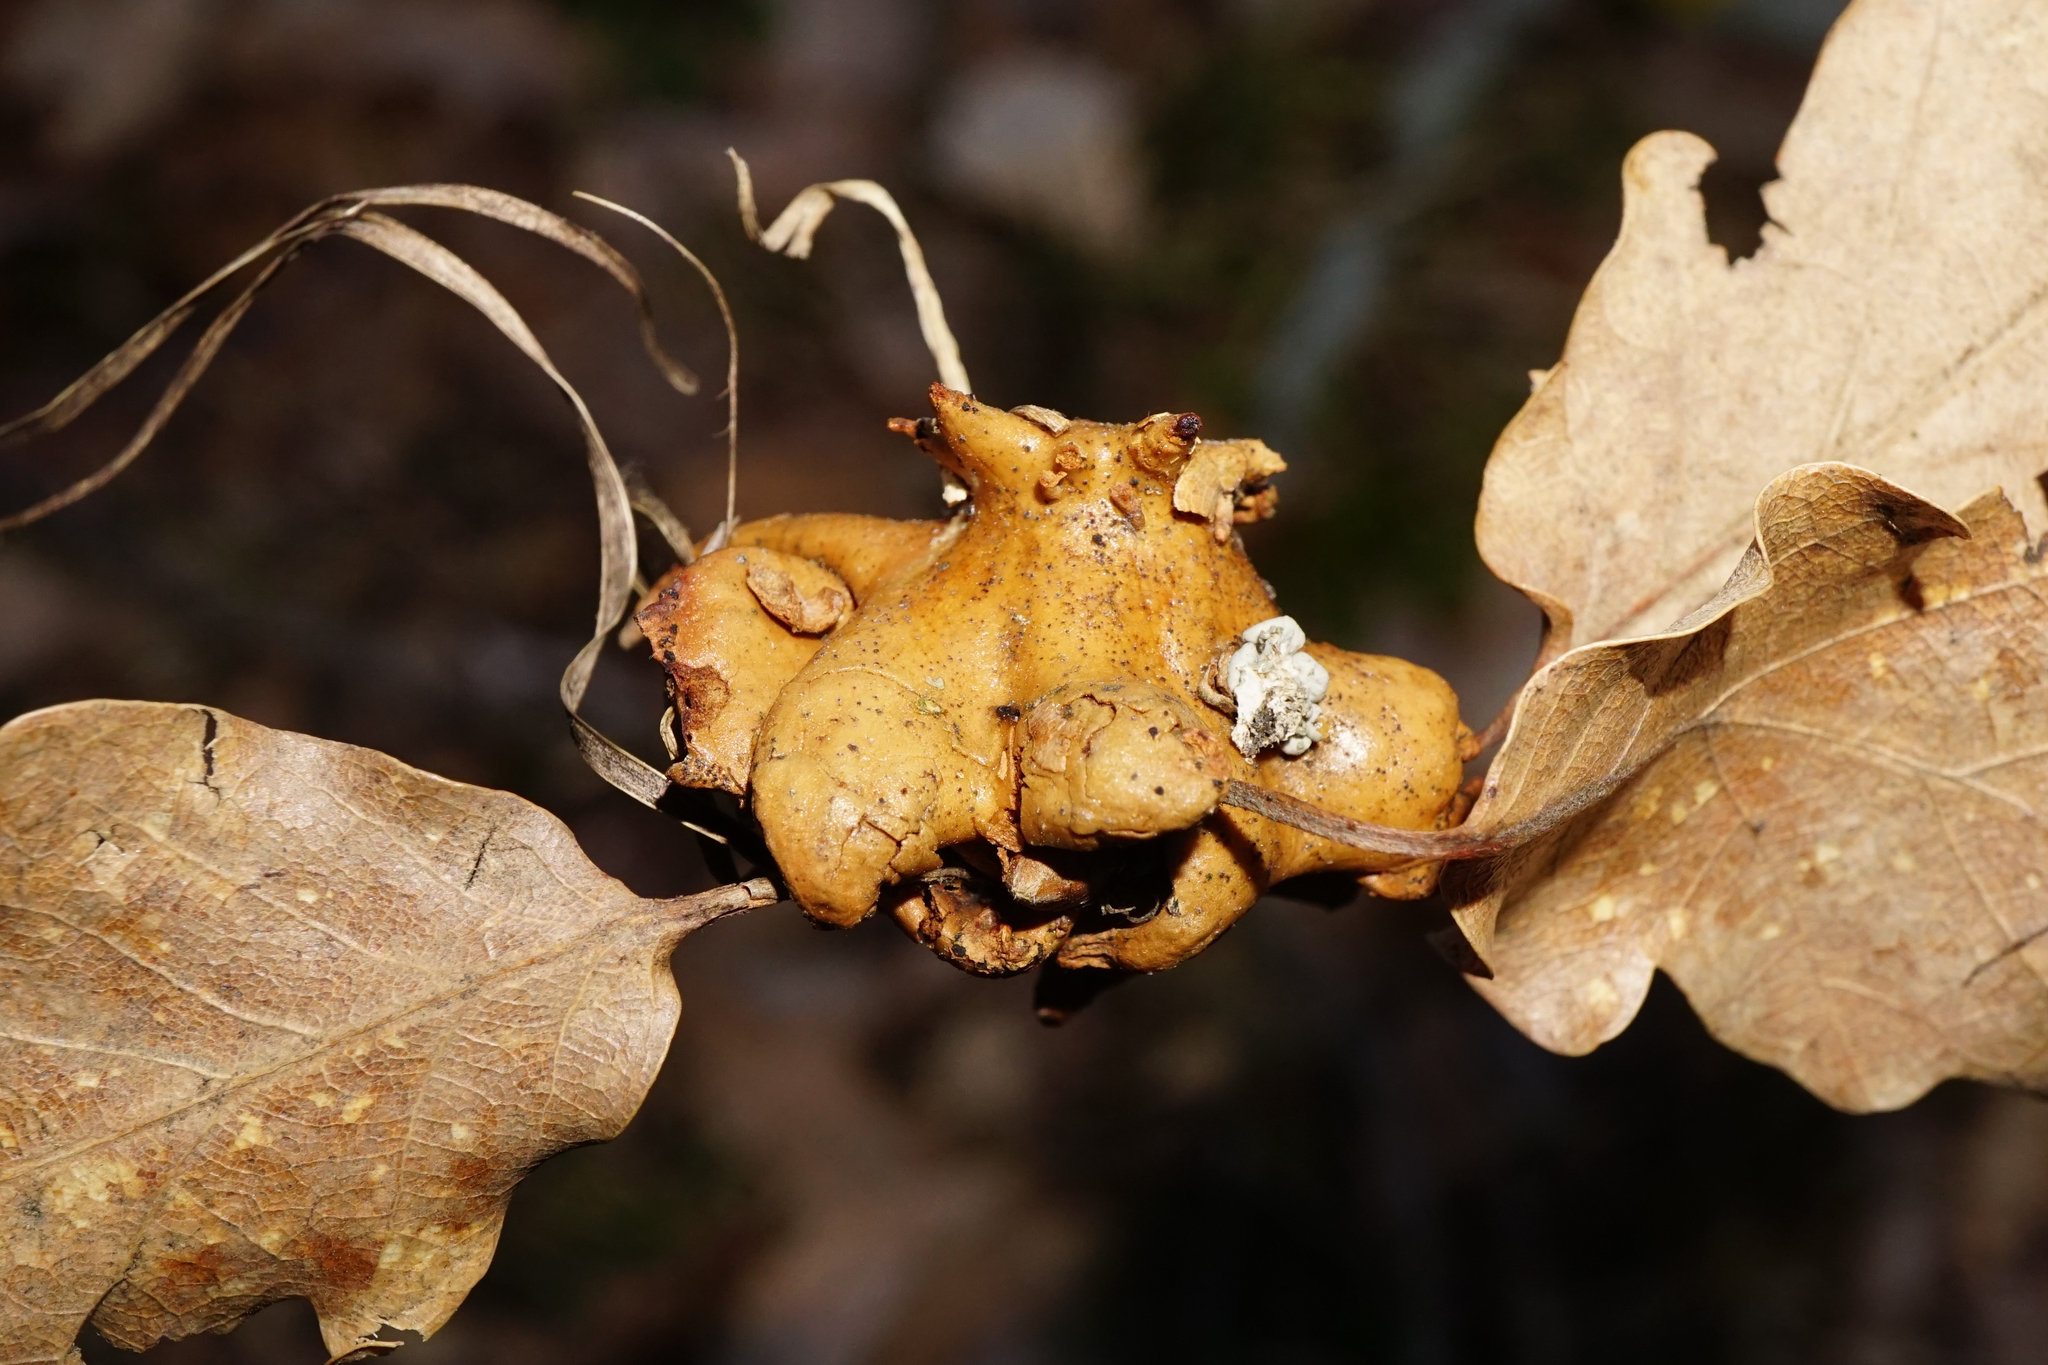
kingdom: Animalia
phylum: Arthropoda
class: Insecta
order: Hymenoptera
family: Cynipidae
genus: Andricus
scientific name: Andricus dentimitratus
